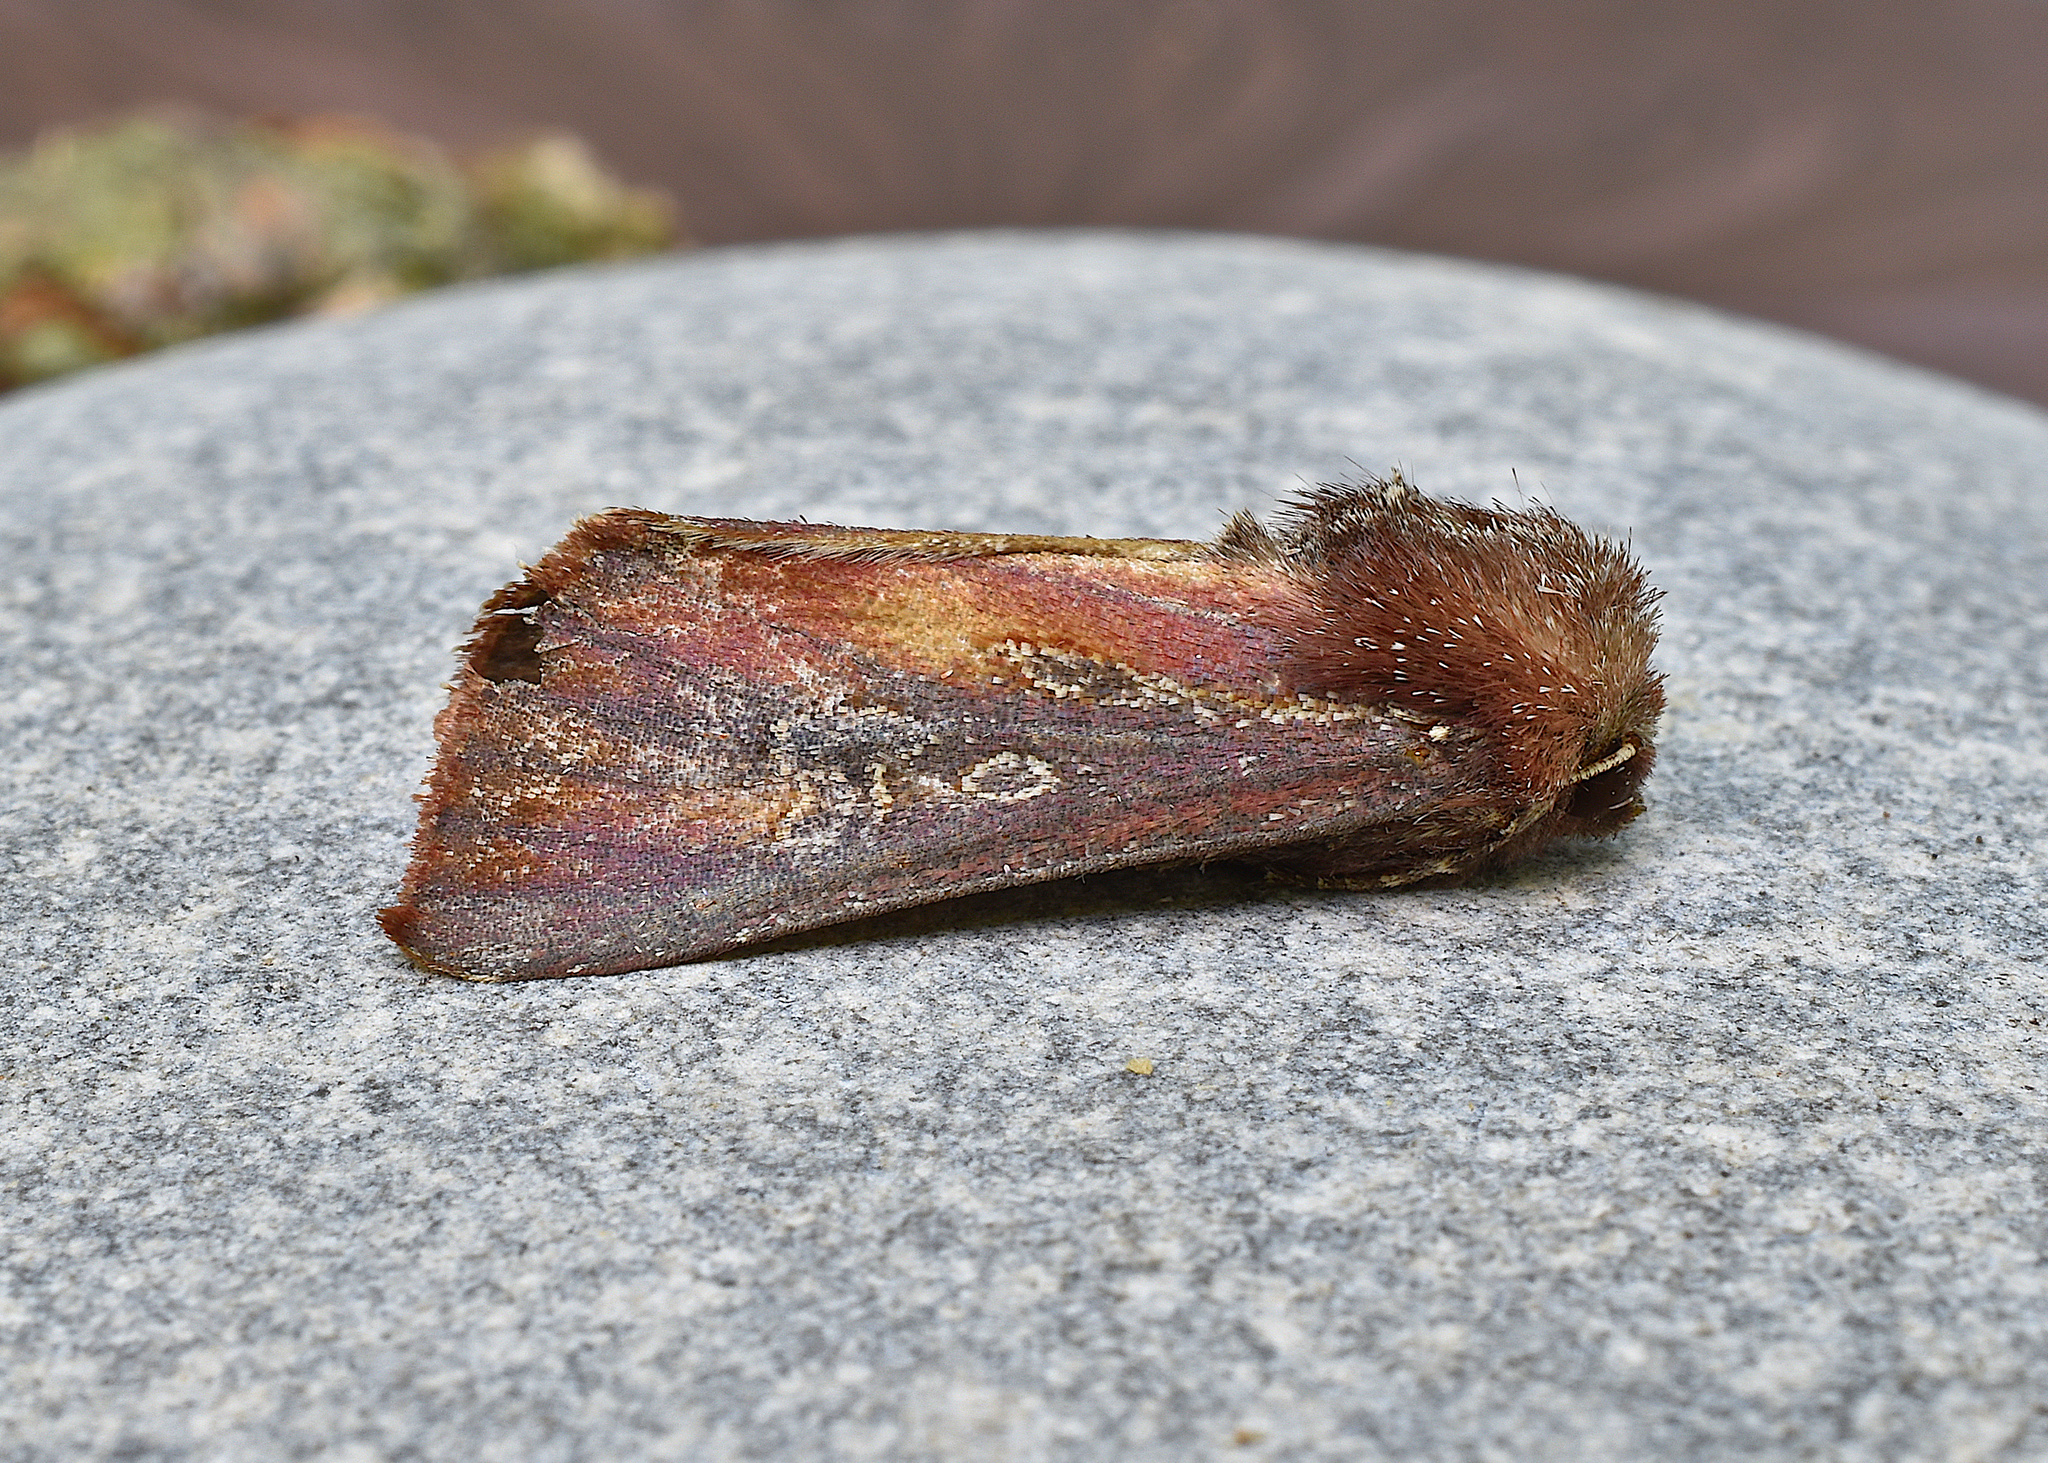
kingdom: Animalia
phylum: Arthropoda
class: Insecta
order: Lepidoptera
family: Noctuidae
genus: Melanchra
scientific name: Melanchra picta
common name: Zebra caterpillar
